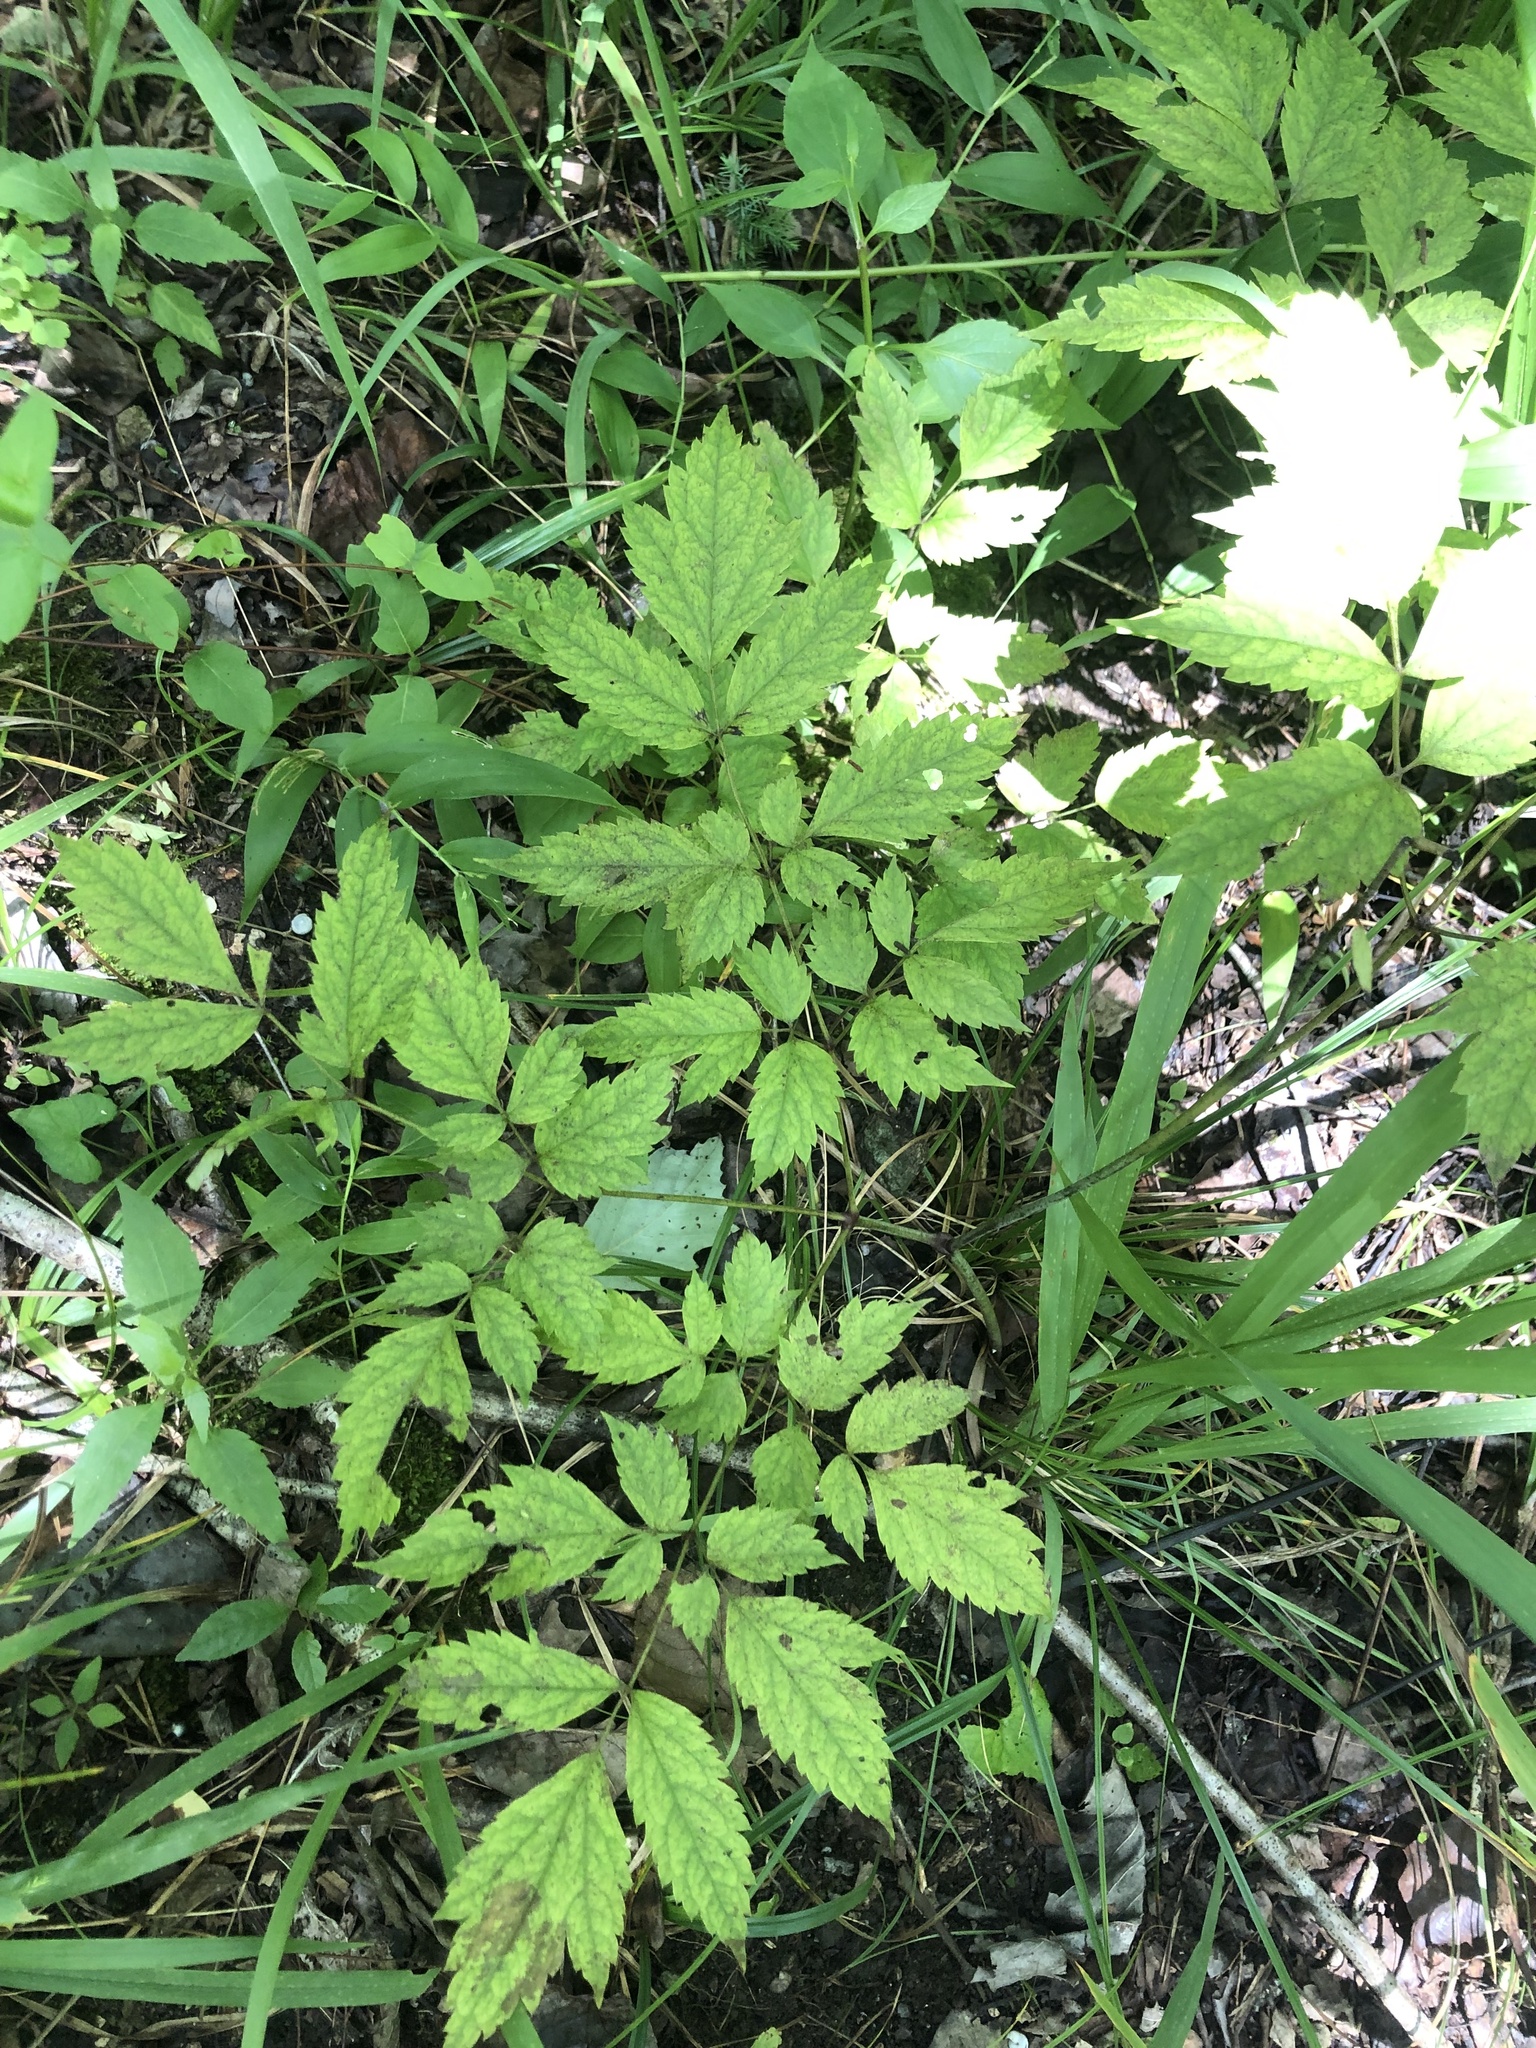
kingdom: Plantae
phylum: Tracheophyta
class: Magnoliopsida
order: Ranunculales
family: Ranunculaceae
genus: Actaea
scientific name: Actaea pachypoda
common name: Doll's-eyes
